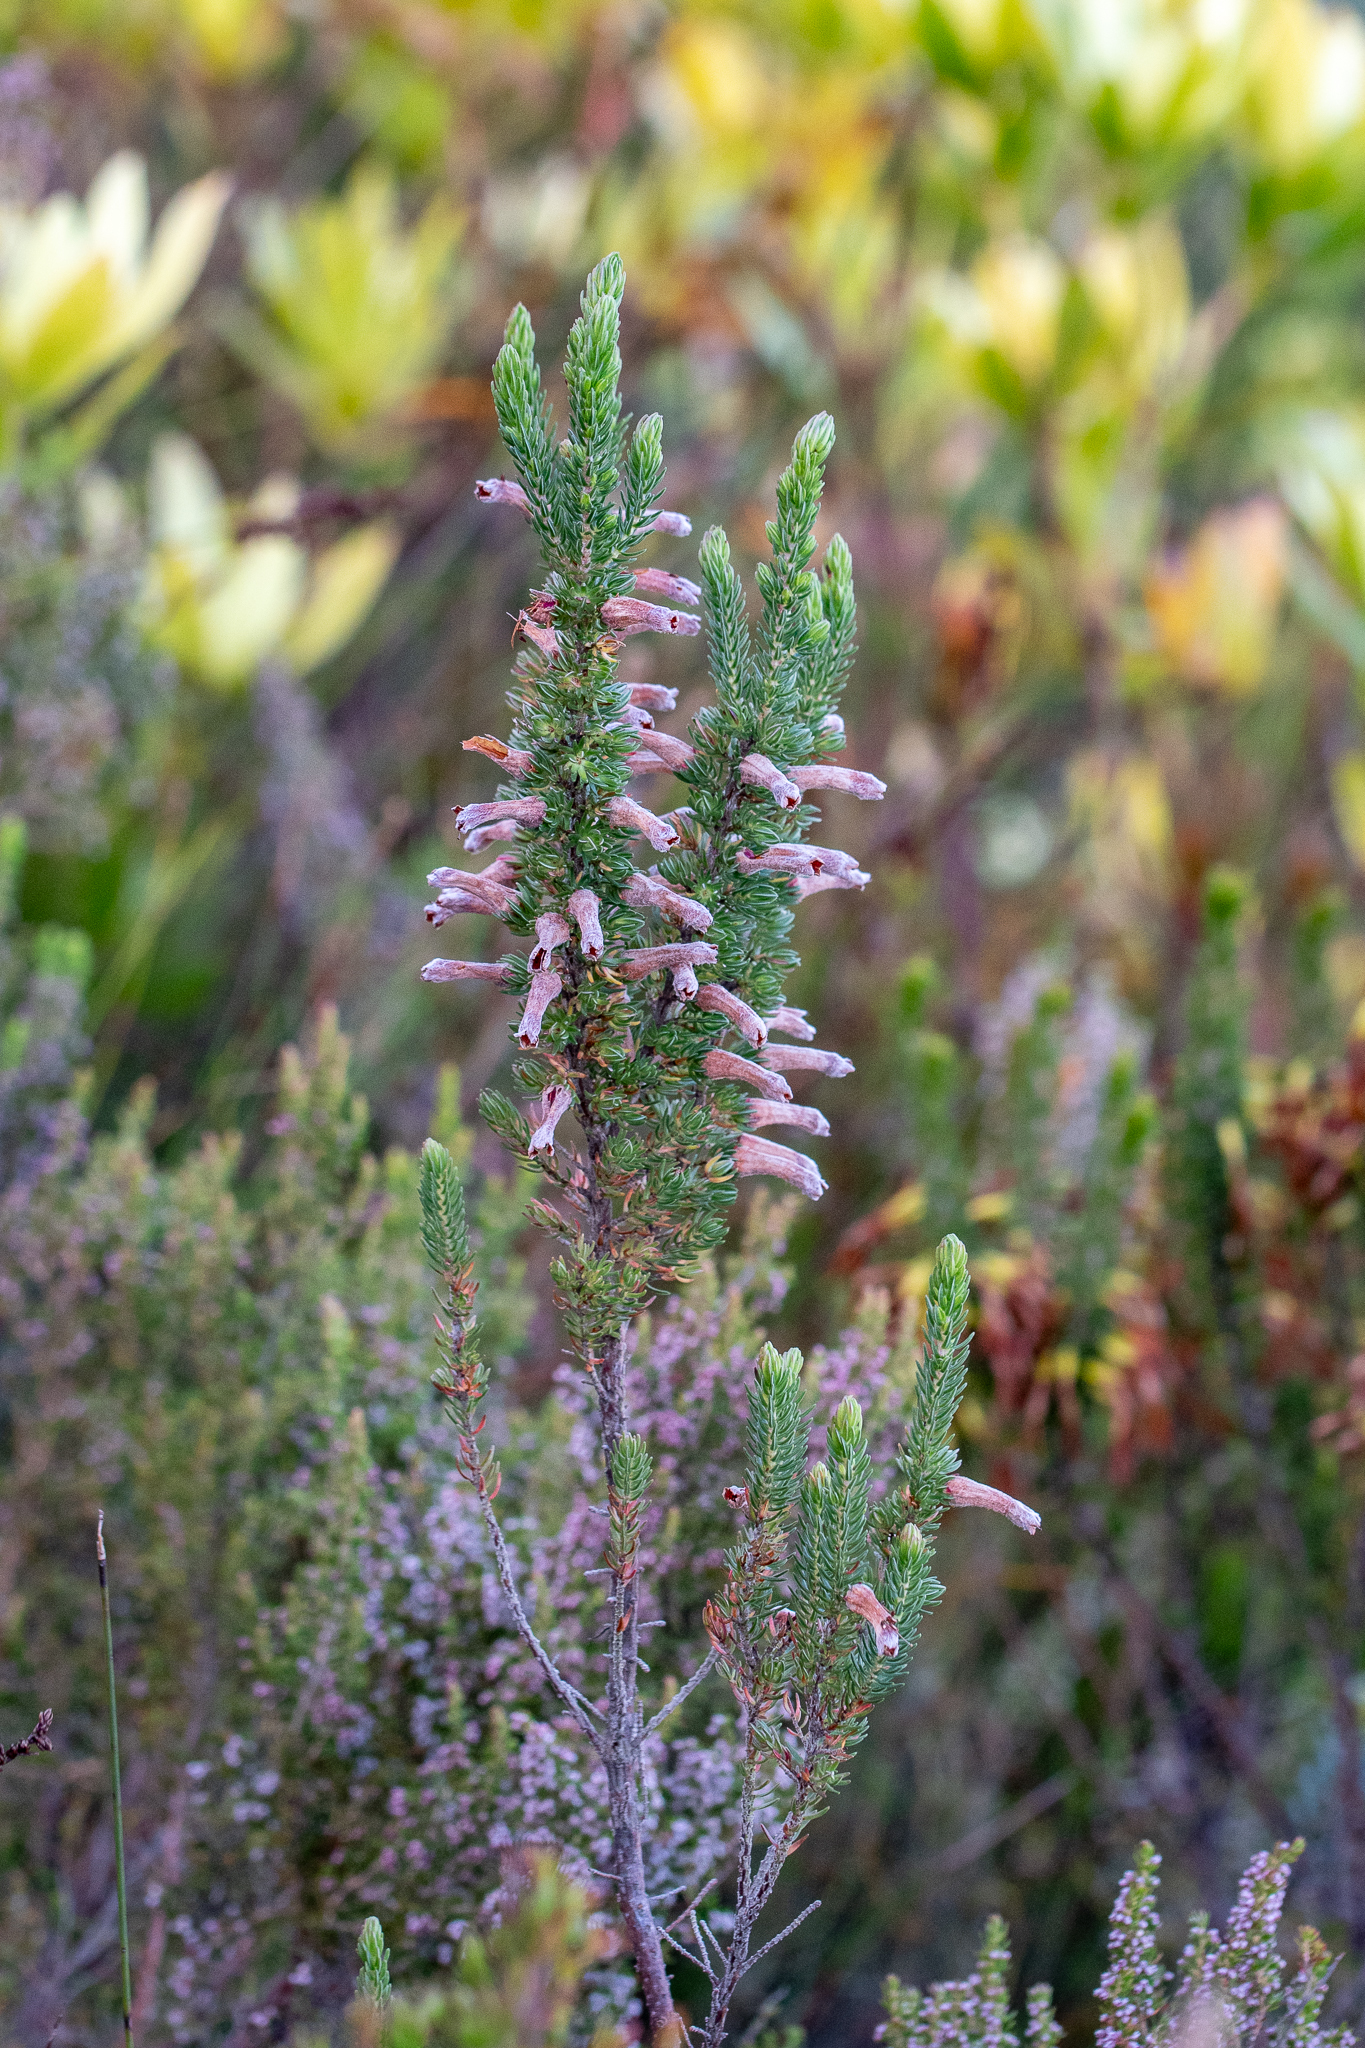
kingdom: Plantae
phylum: Tracheophyta
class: Magnoliopsida
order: Ericales
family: Ericaceae
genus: Erica
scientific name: Erica leucotrachela
